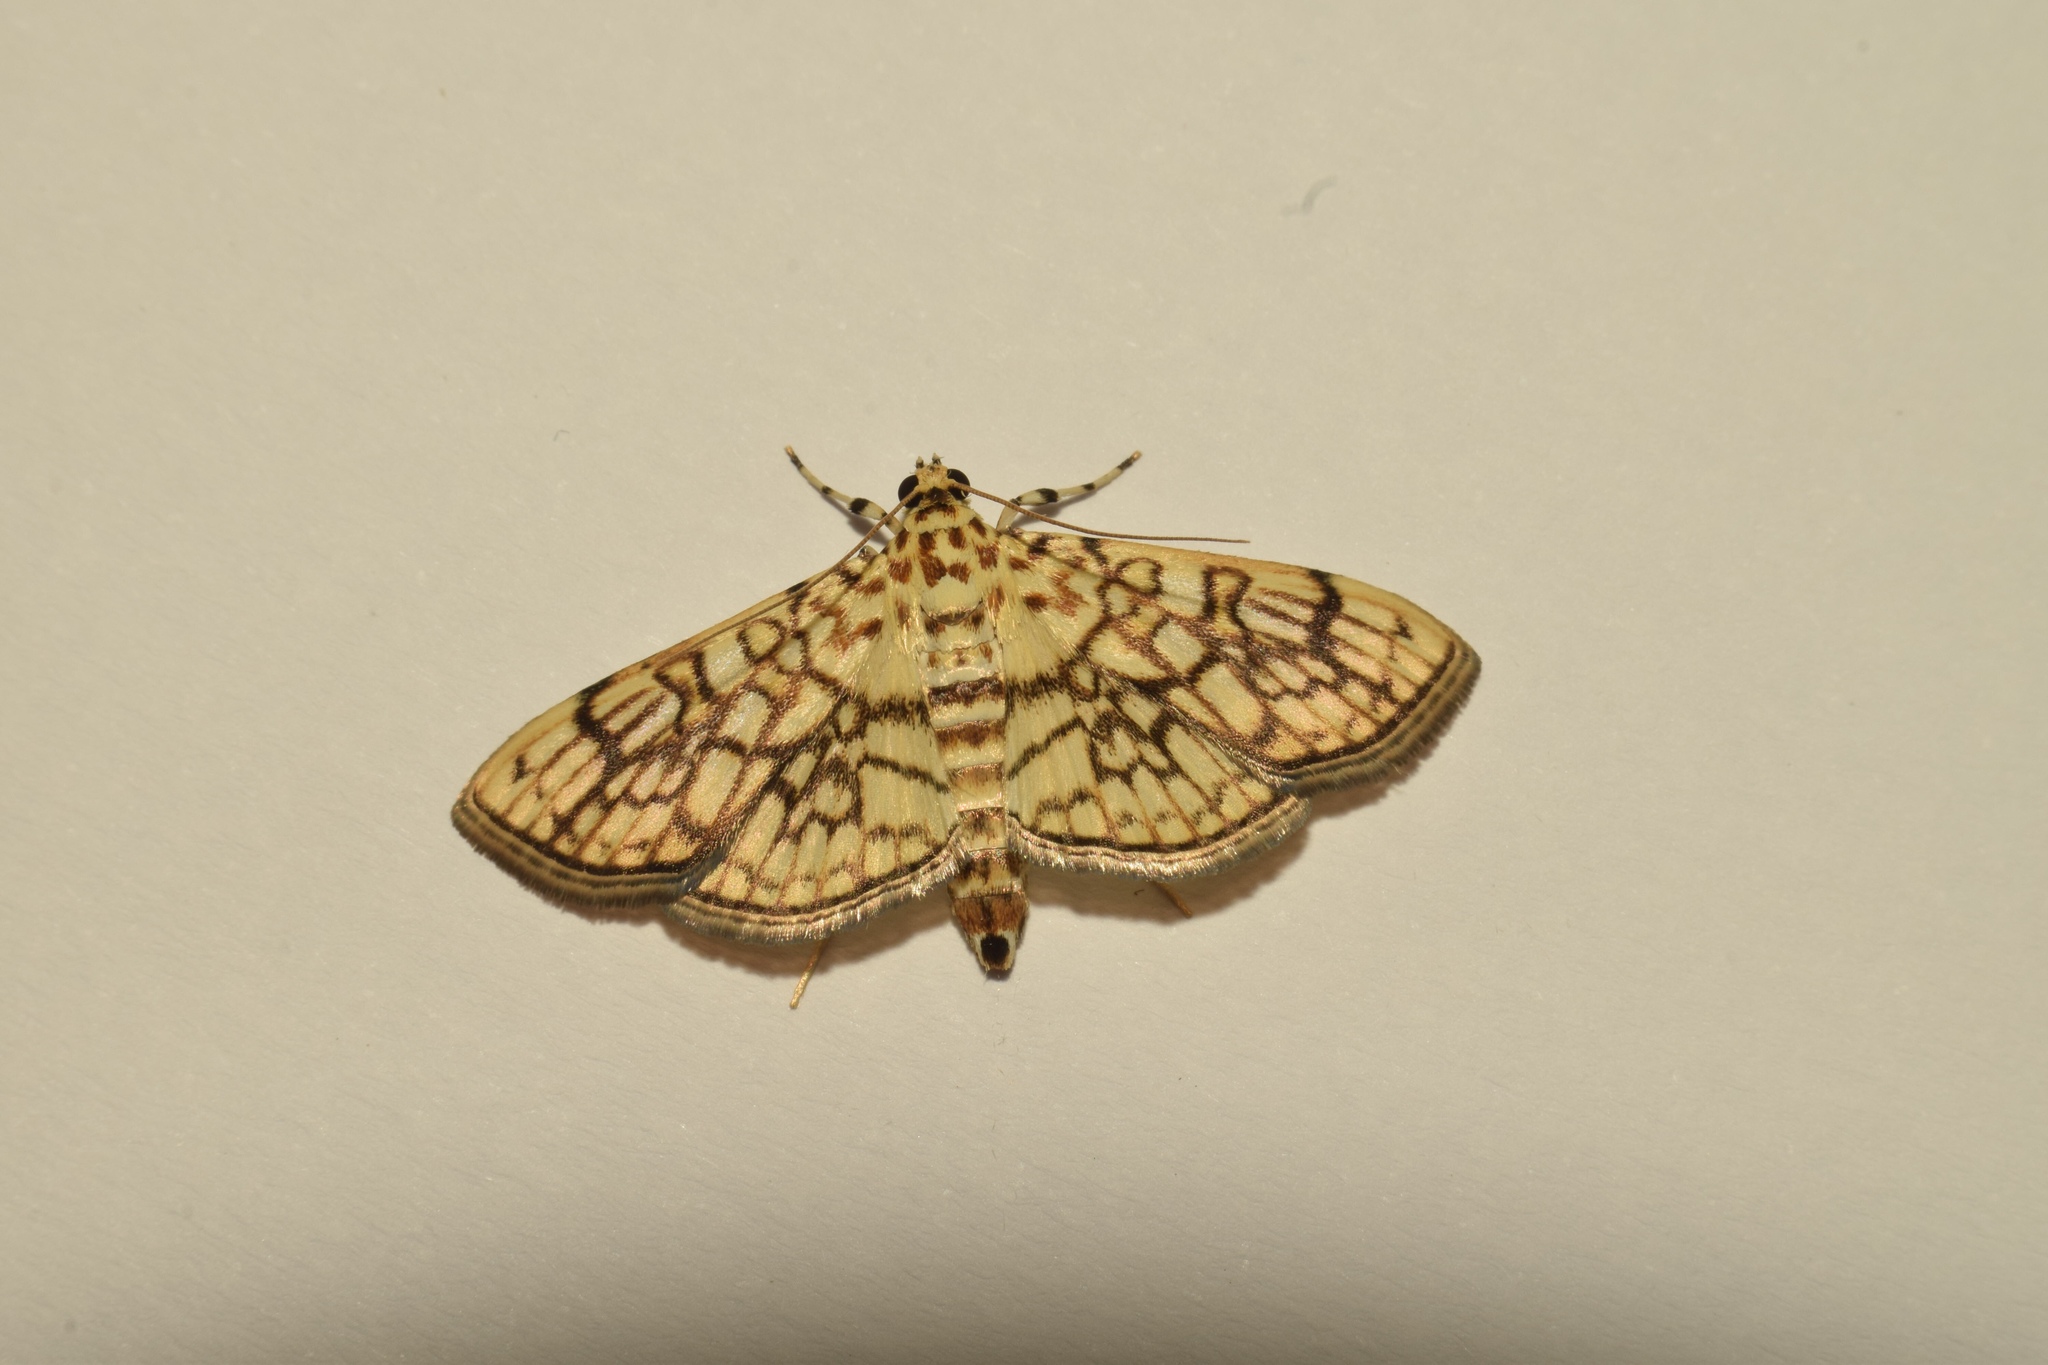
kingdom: Animalia
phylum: Arthropoda
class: Insecta
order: Lepidoptera
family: Crambidae
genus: Haritalodes
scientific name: Haritalodes derogata
